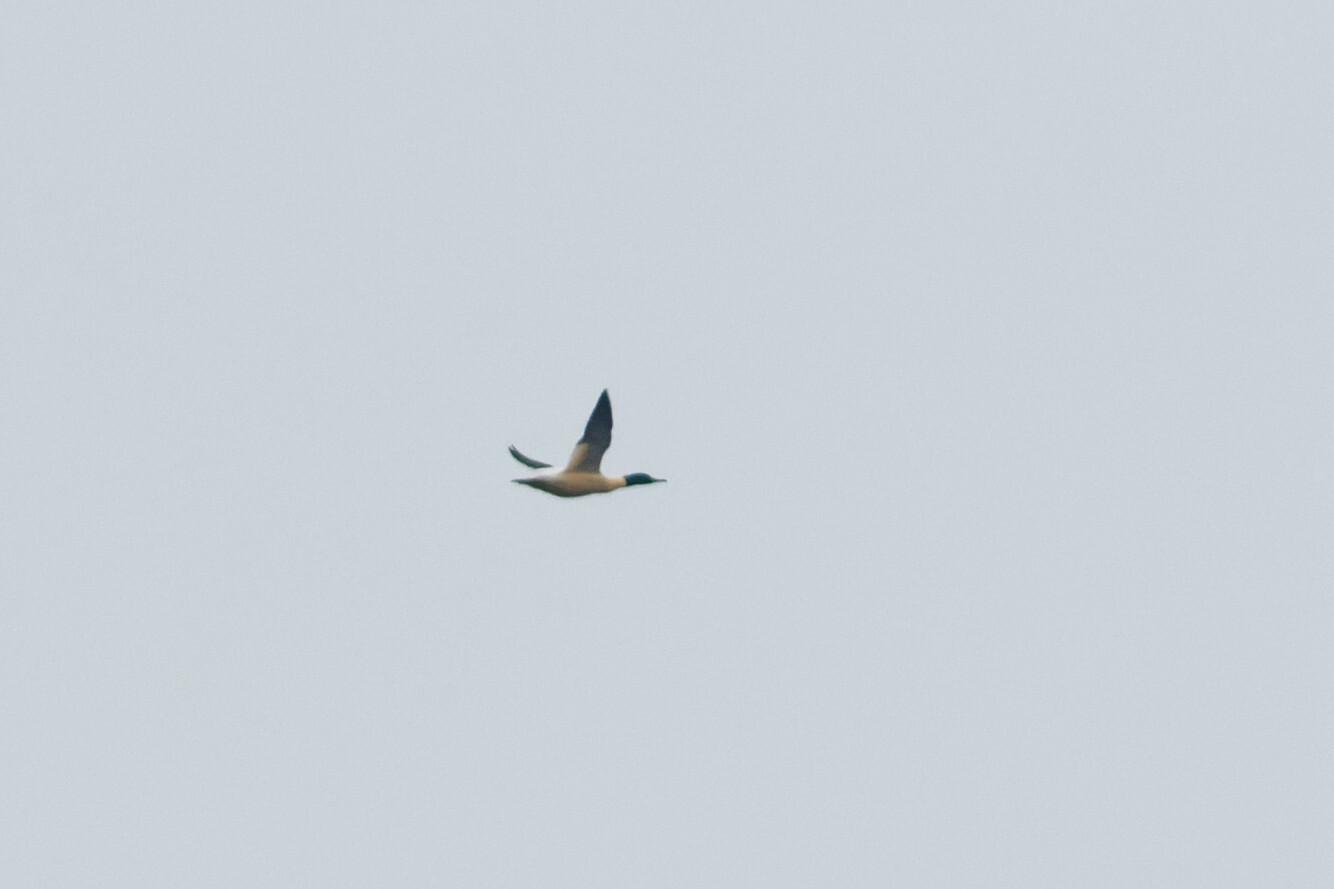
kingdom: Animalia
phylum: Chordata
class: Aves
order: Anseriformes
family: Anatidae
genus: Mergus
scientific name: Mergus merganser
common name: Common merganser
